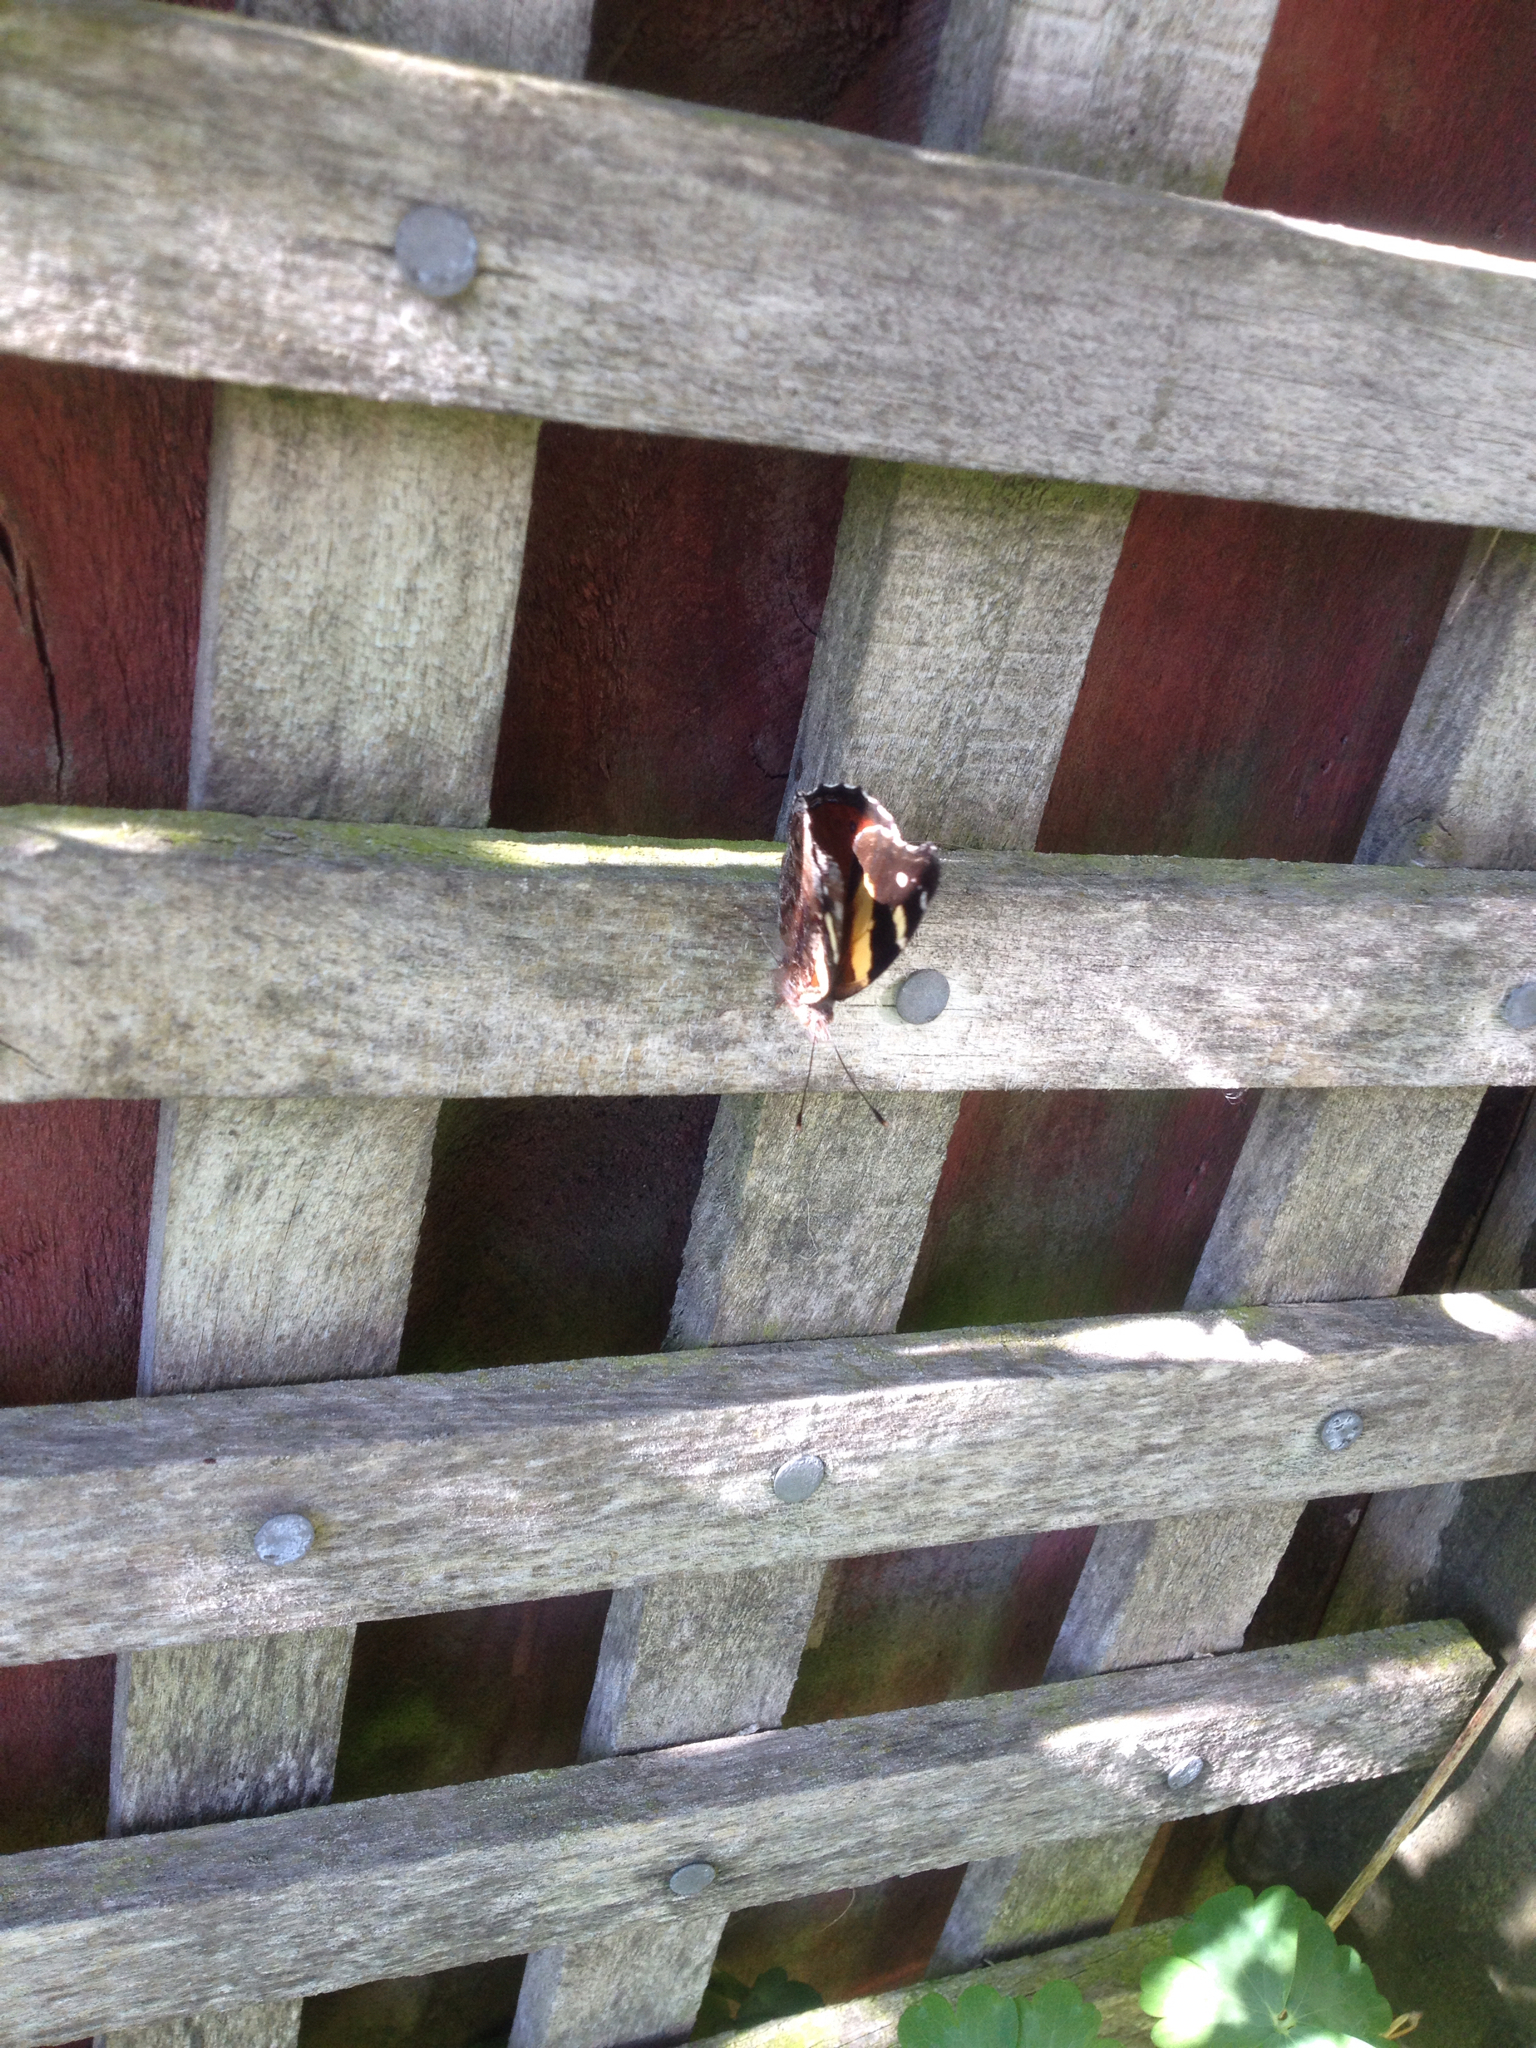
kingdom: Animalia
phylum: Arthropoda
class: Insecta
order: Lepidoptera
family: Nymphalidae
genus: Vanessa
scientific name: Vanessa itea
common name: Yellow admiral
